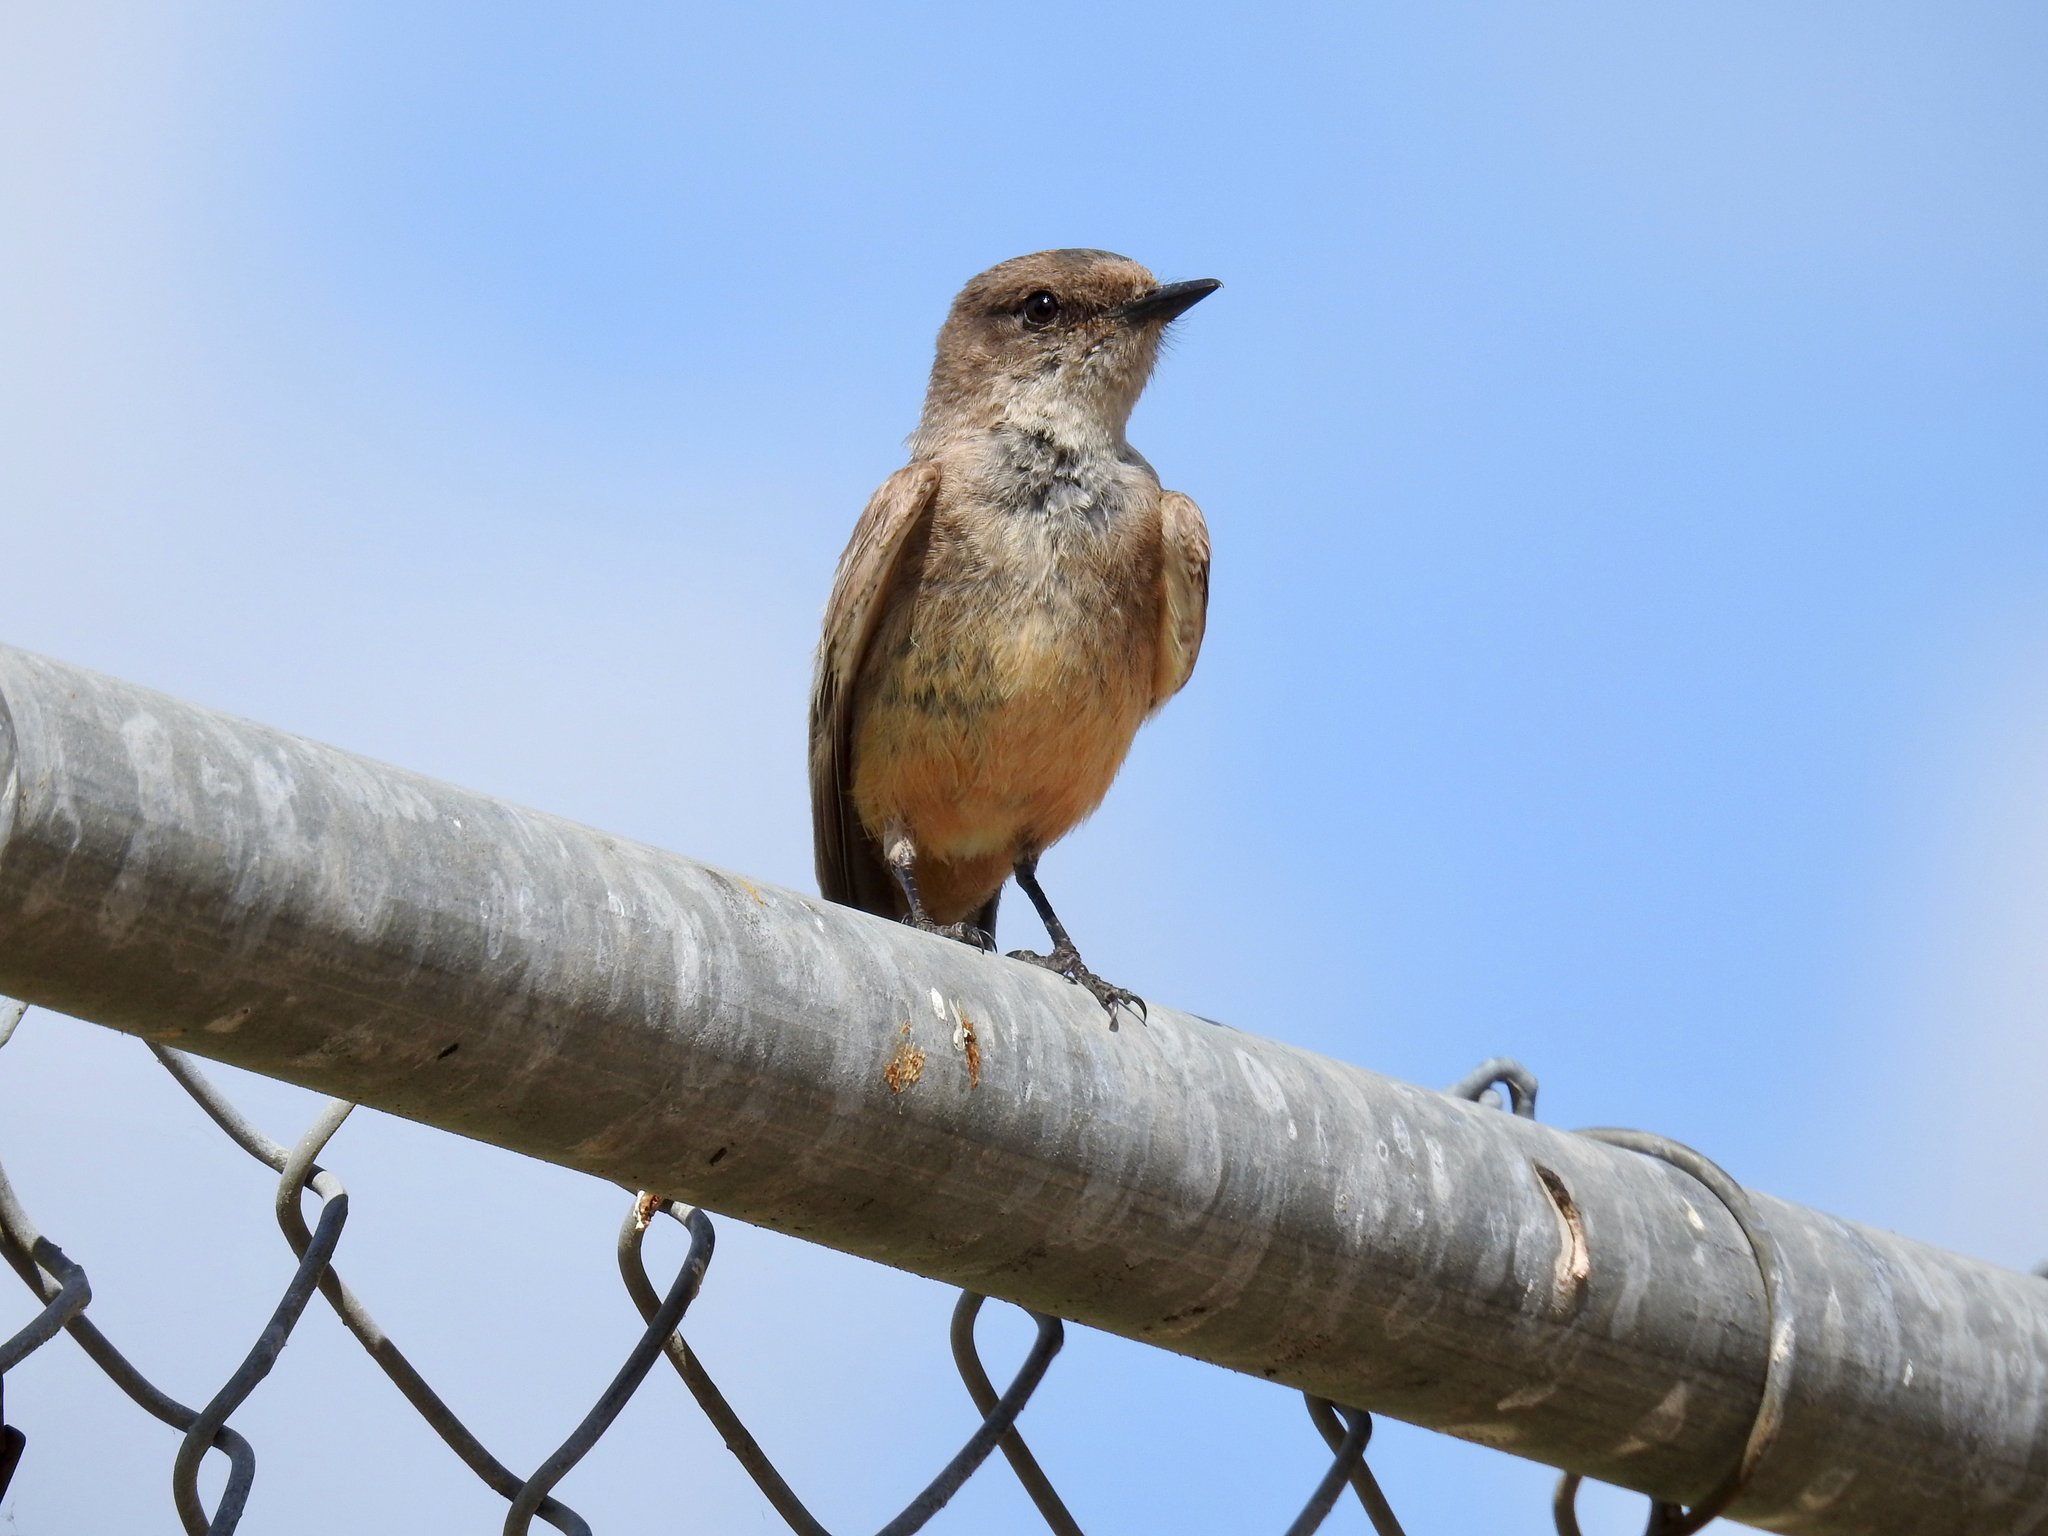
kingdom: Animalia
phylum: Chordata
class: Aves
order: Passeriformes
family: Tyrannidae
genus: Sayornis
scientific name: Sayornis saya
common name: Say's phoebe
